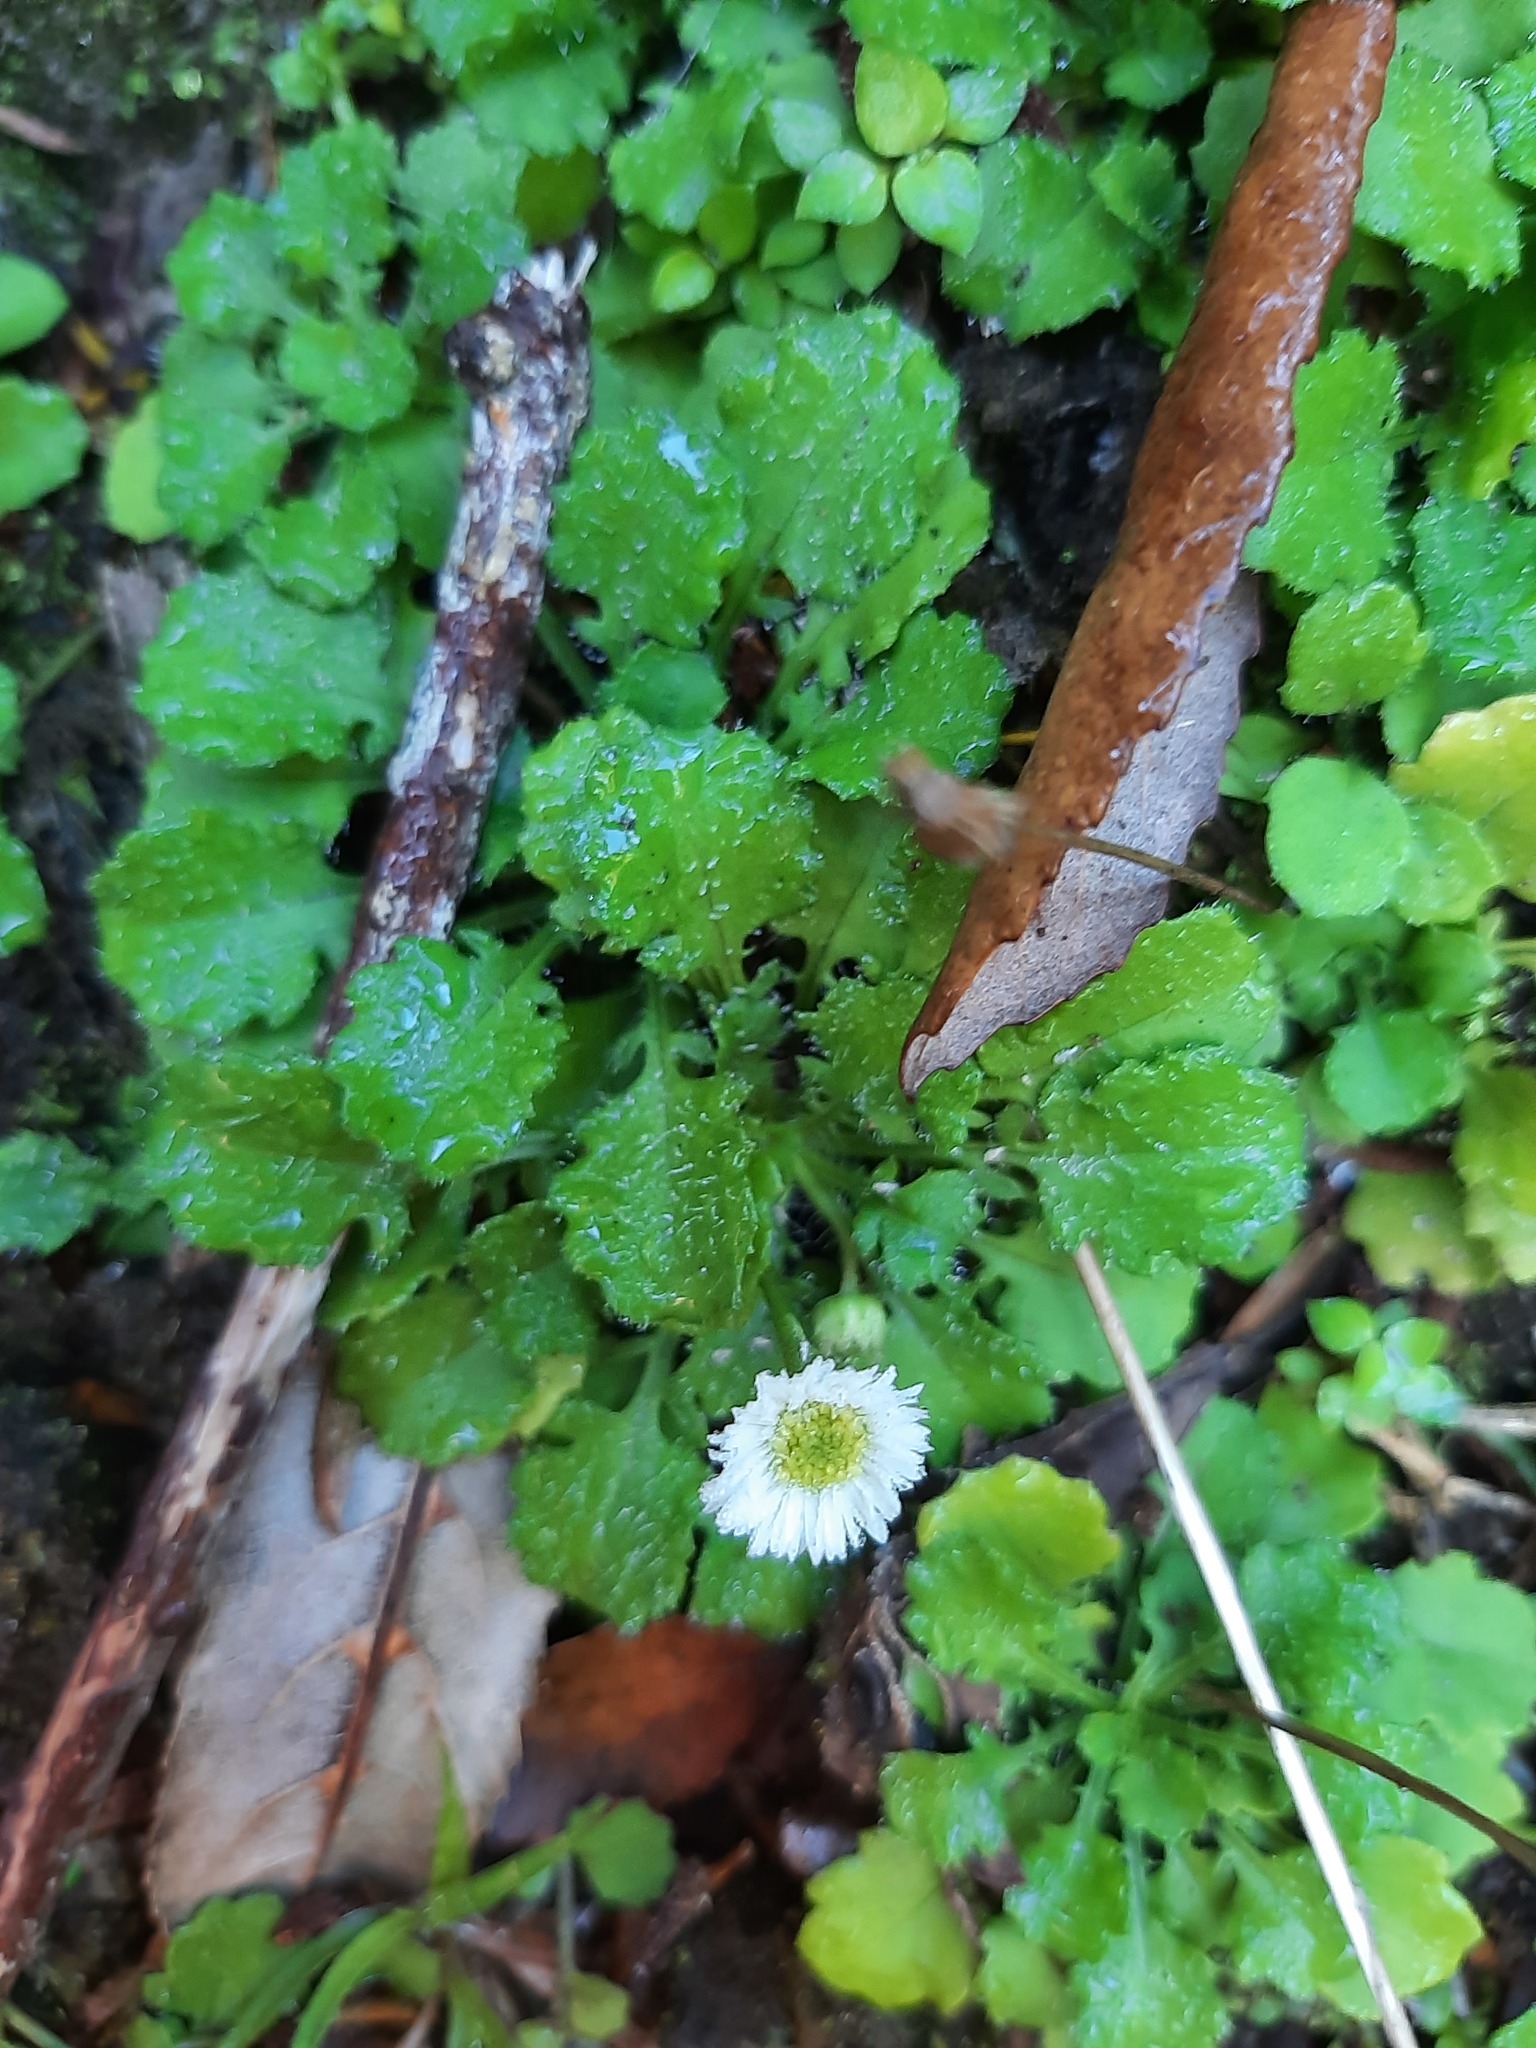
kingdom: Plantae
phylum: Tracheophyta
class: Magnoliopsida
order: Asterales
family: Asteraceae
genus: Lagenophora
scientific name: Lagenophora pumila
